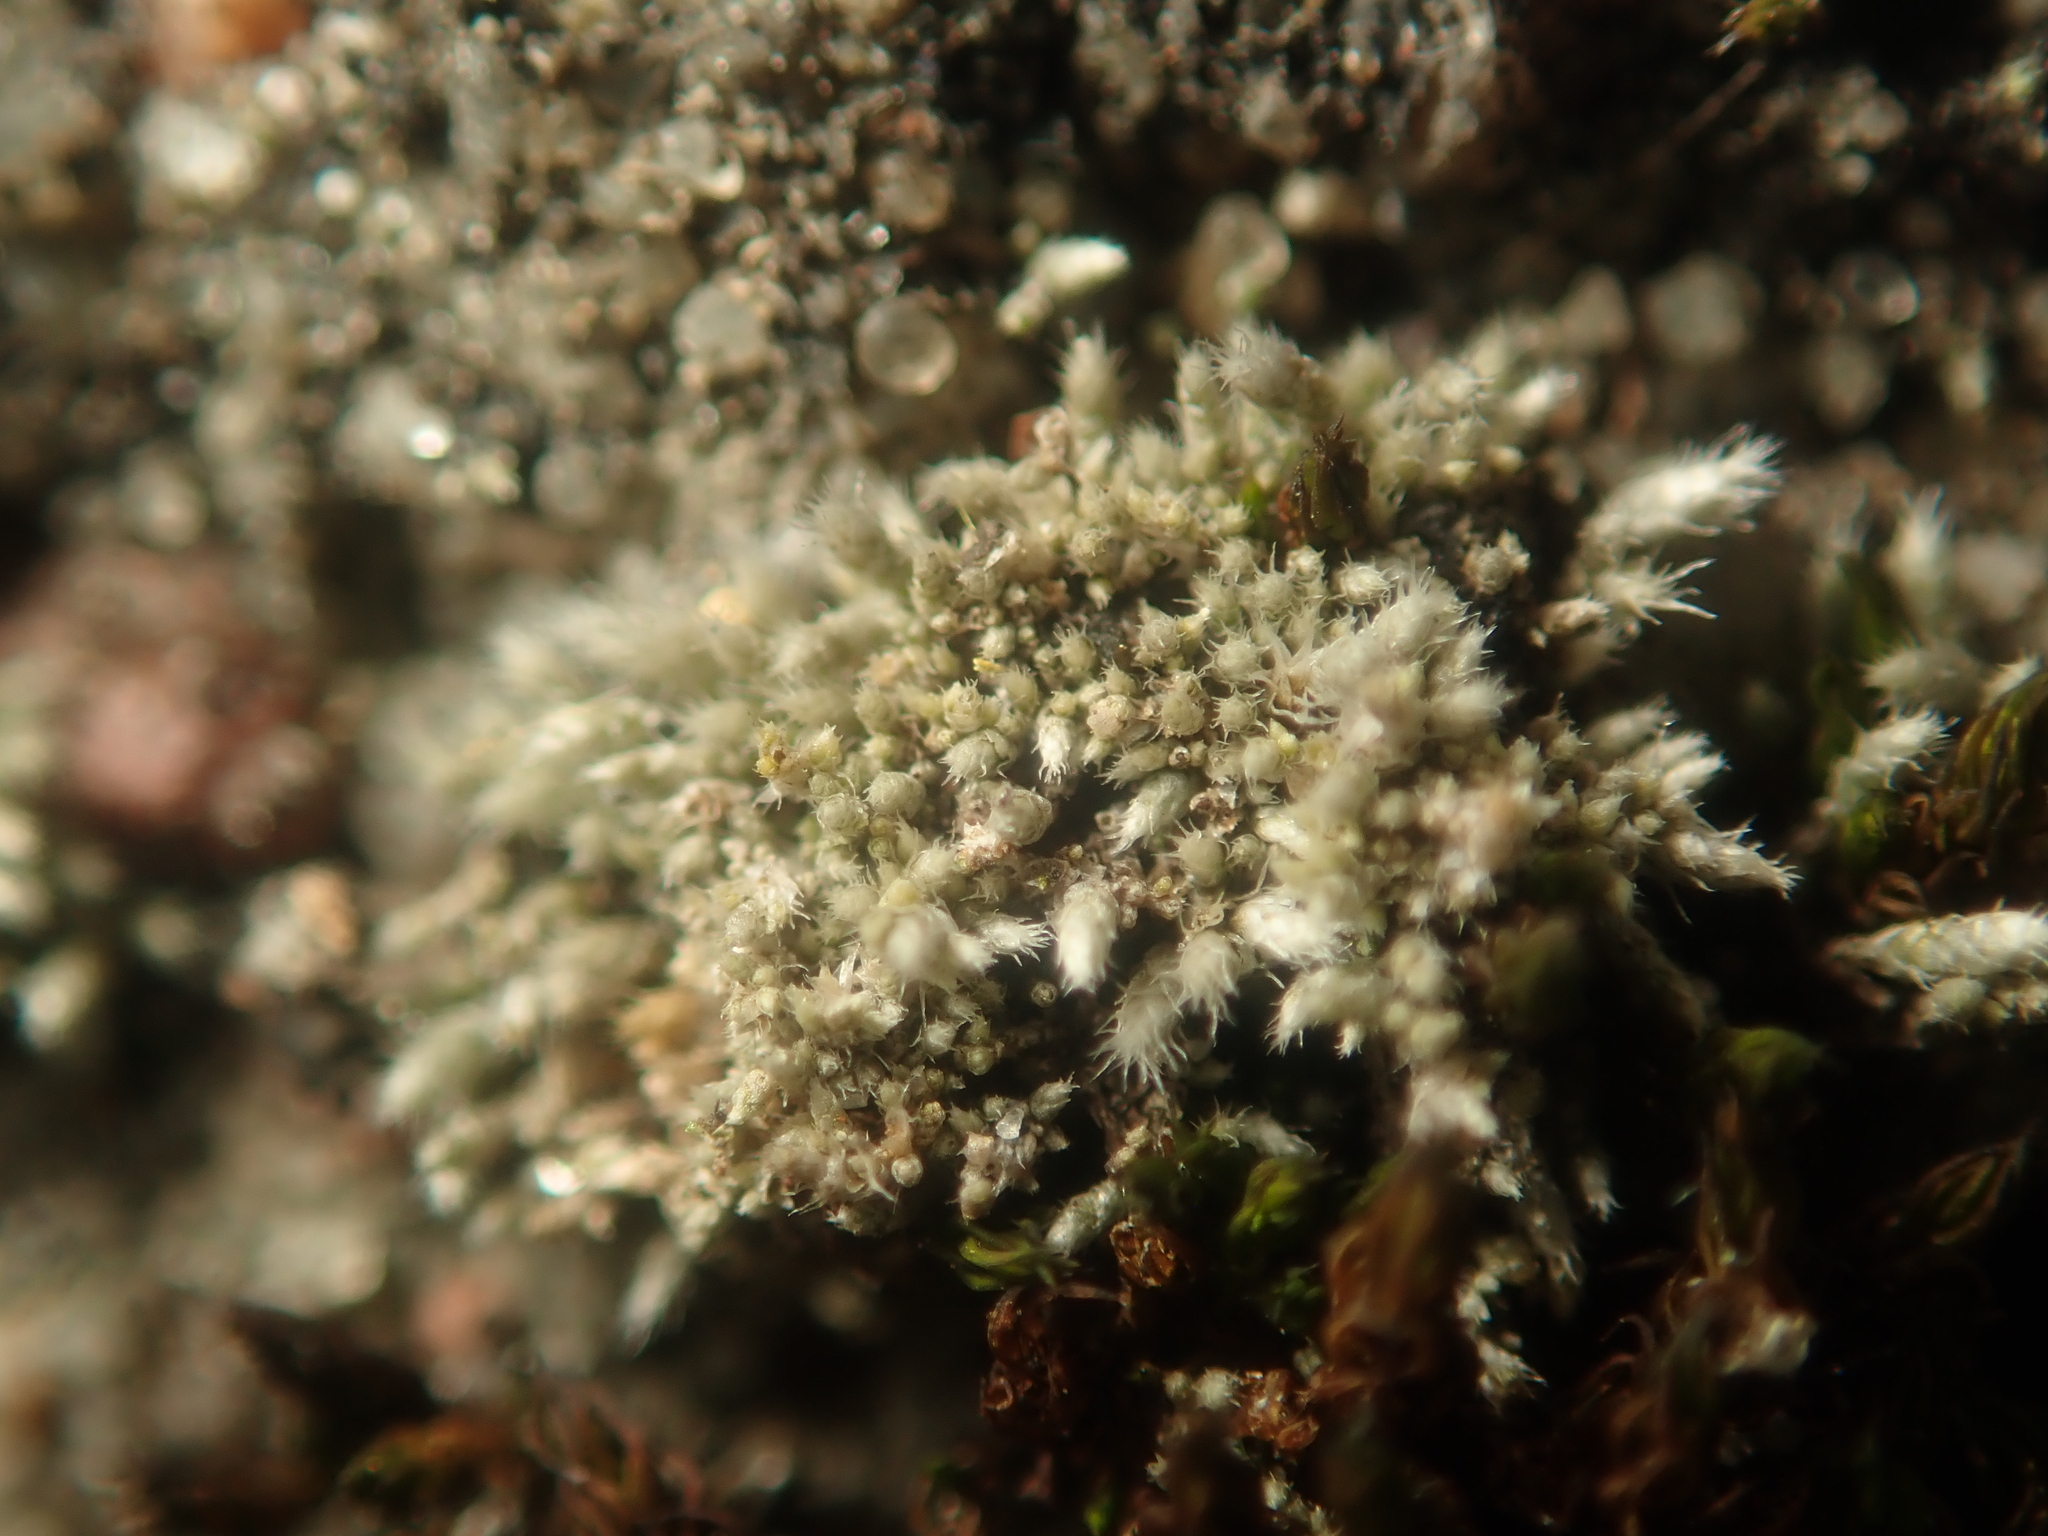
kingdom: Plantae
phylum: Bryophyta
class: Bryopsida
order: Bryales
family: Bryaceae
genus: Bryum
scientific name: Bryum argenteum
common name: Silver-moss
